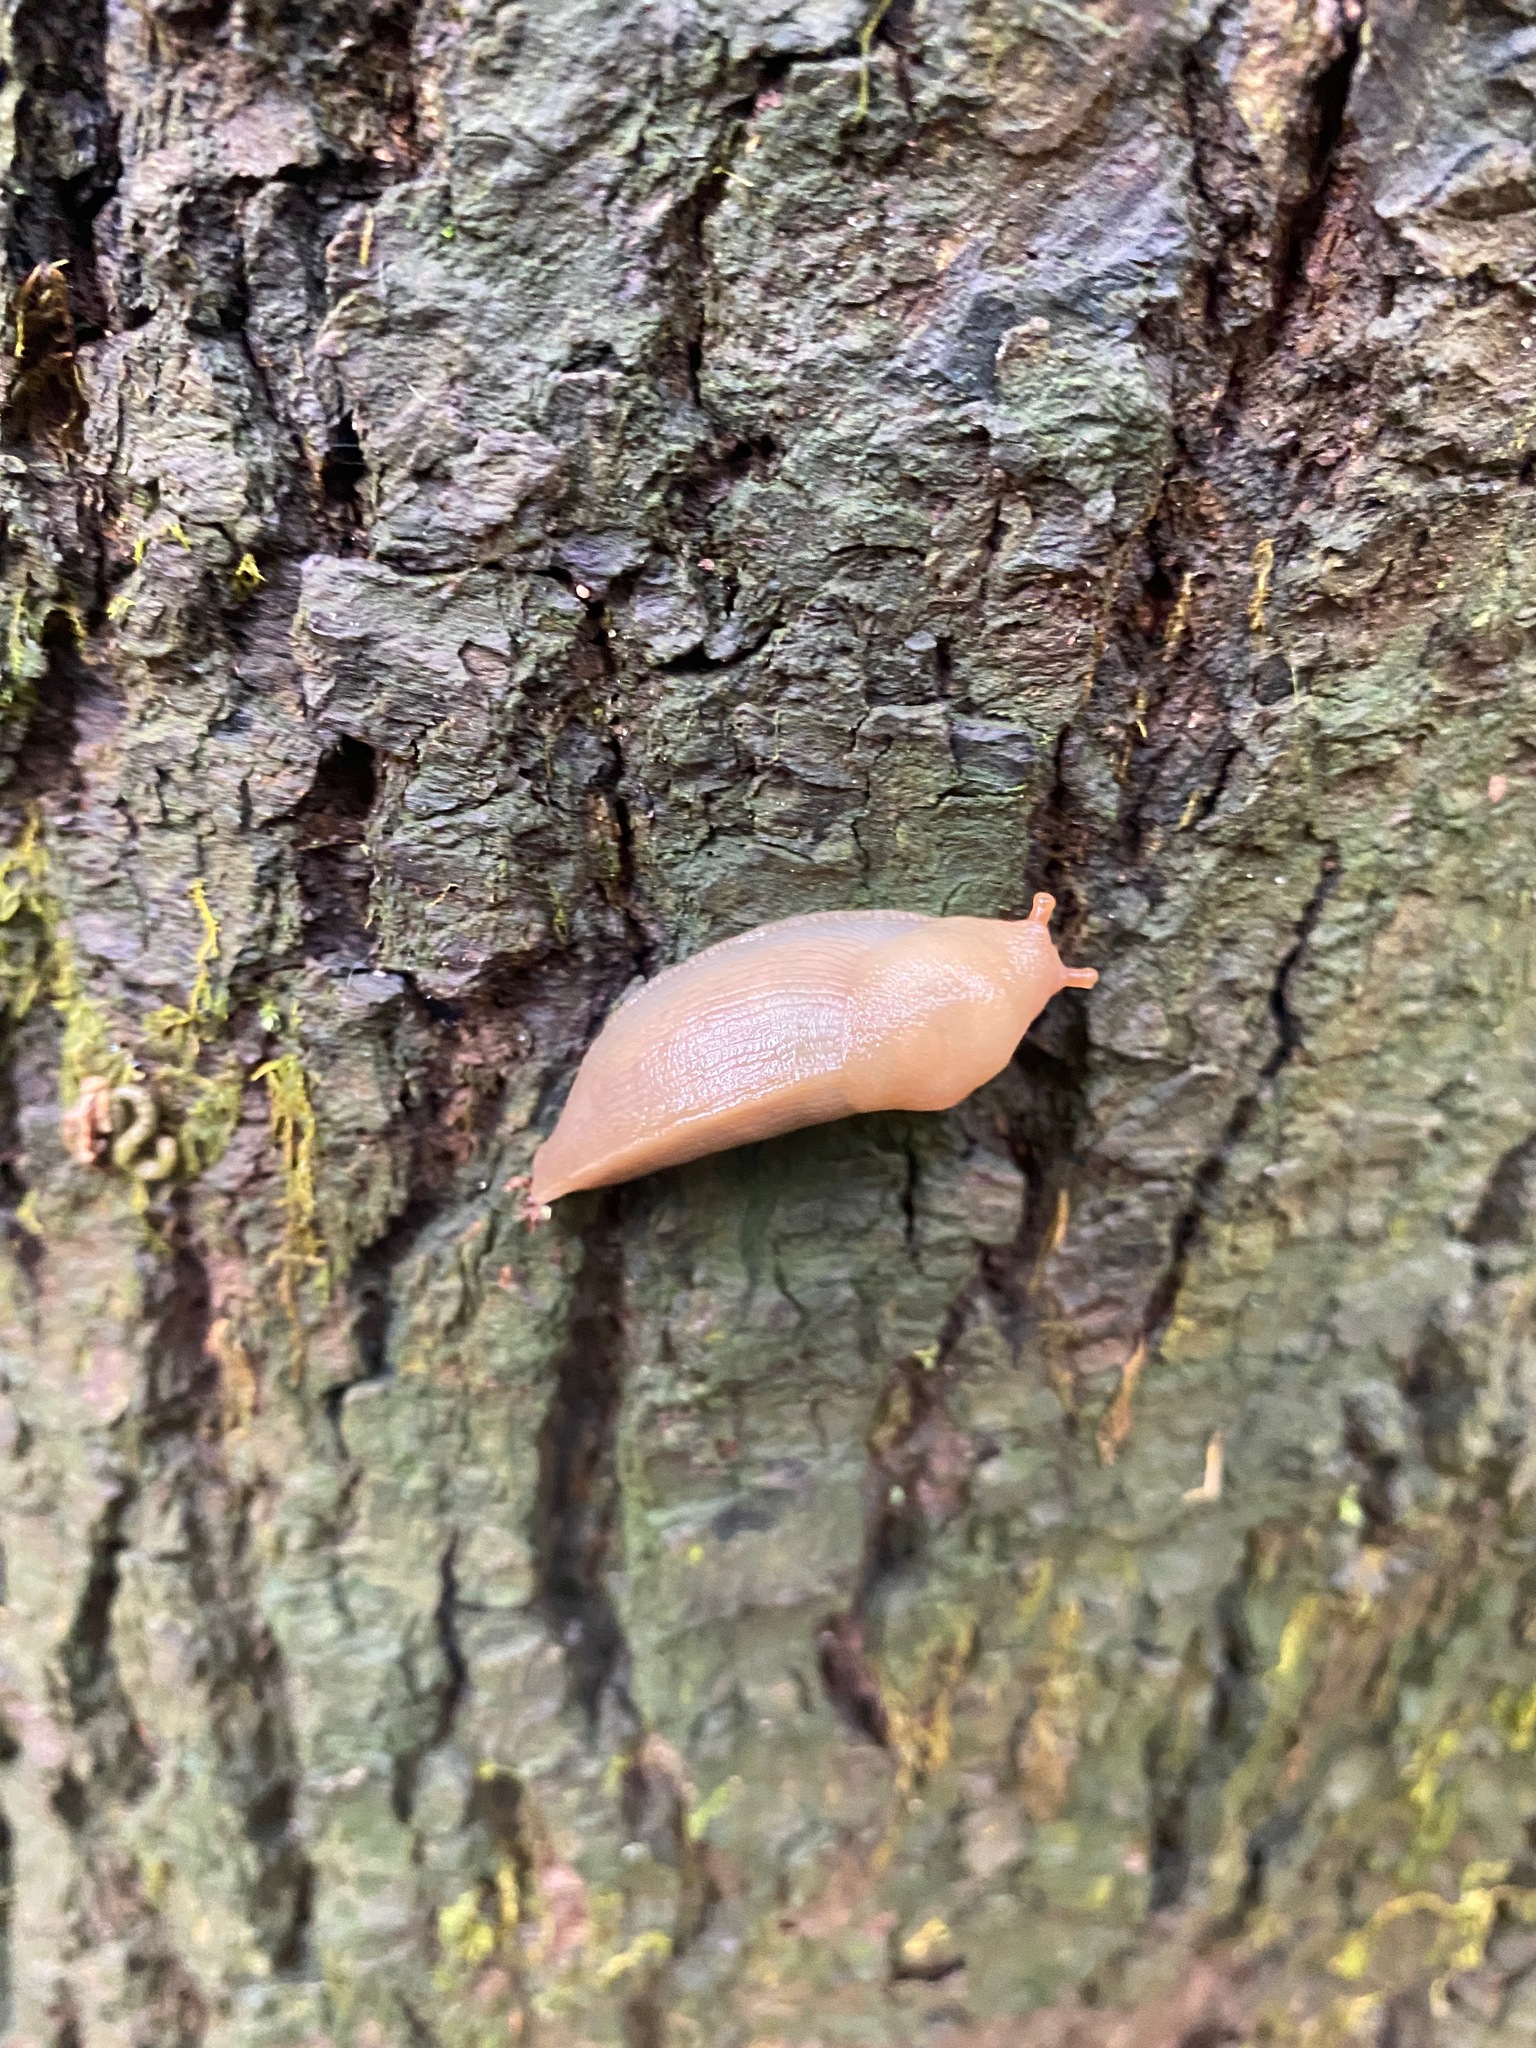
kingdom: Animalia
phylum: Mollusca
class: Gastropoda
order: Stylommatophora
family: Ariolimacidae
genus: Ariolimax
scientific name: Ariolimax columbianus
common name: Pacific banana slug
